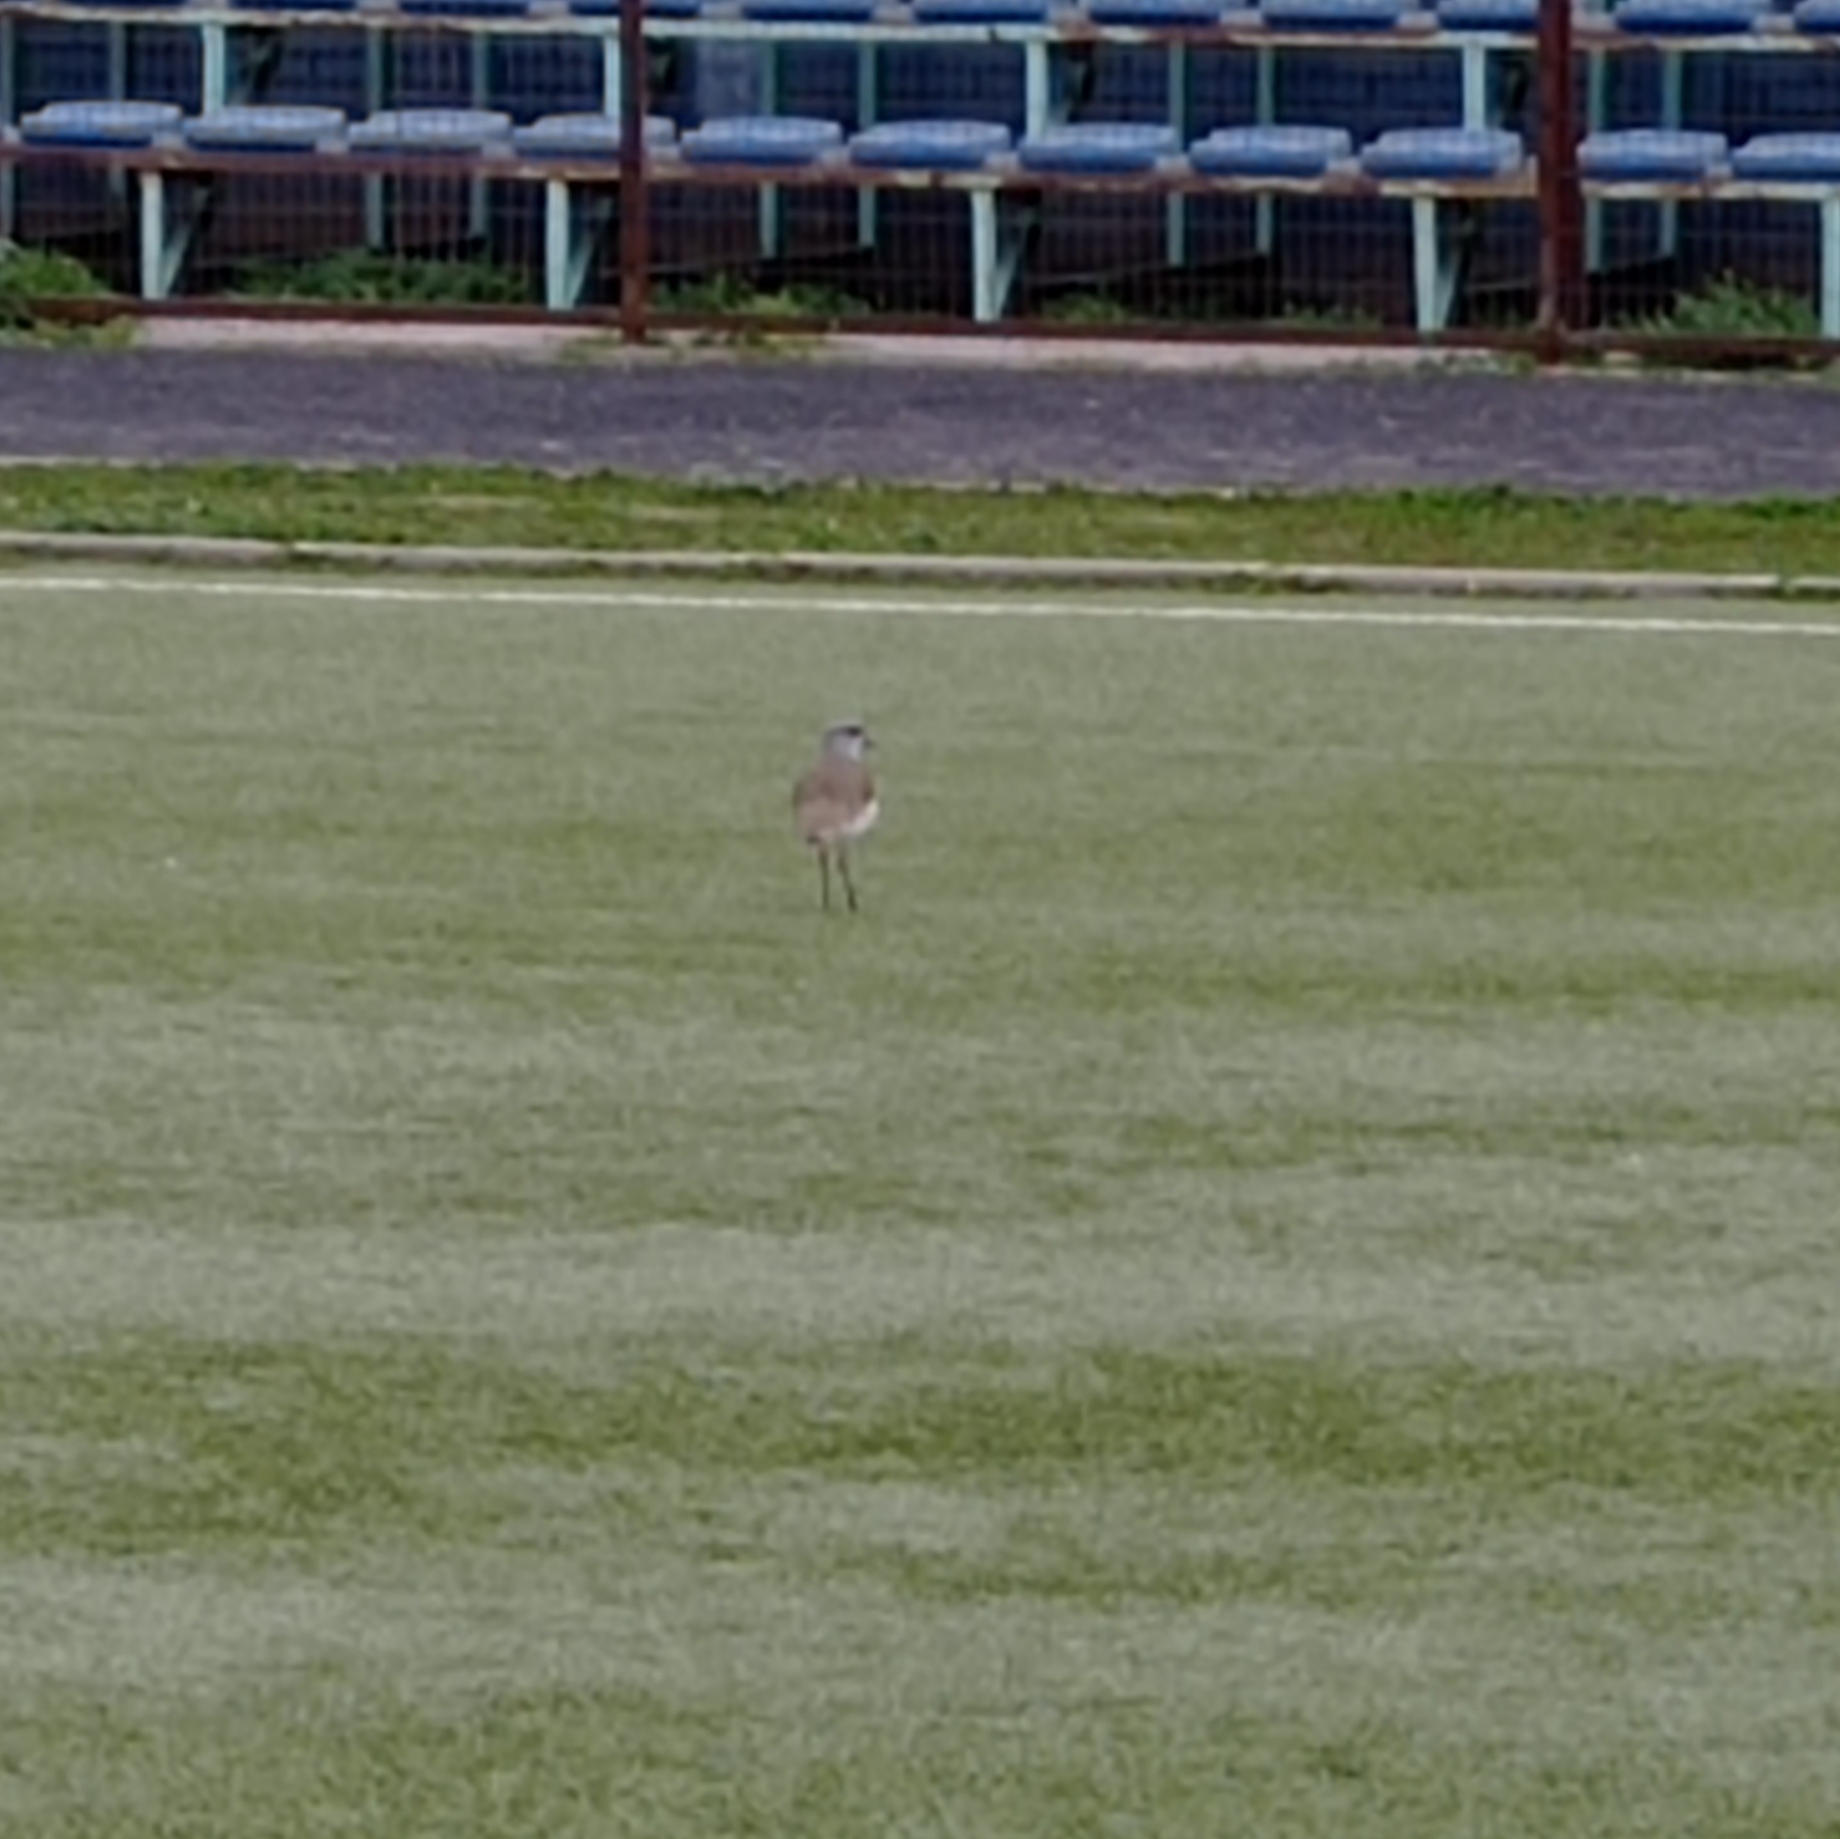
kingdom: Animalia
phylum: Chordata
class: Aves
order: Charadriiformes
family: Charadriidae
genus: Vanellus
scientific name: Vanellus chilensis
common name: Southern lapwing
